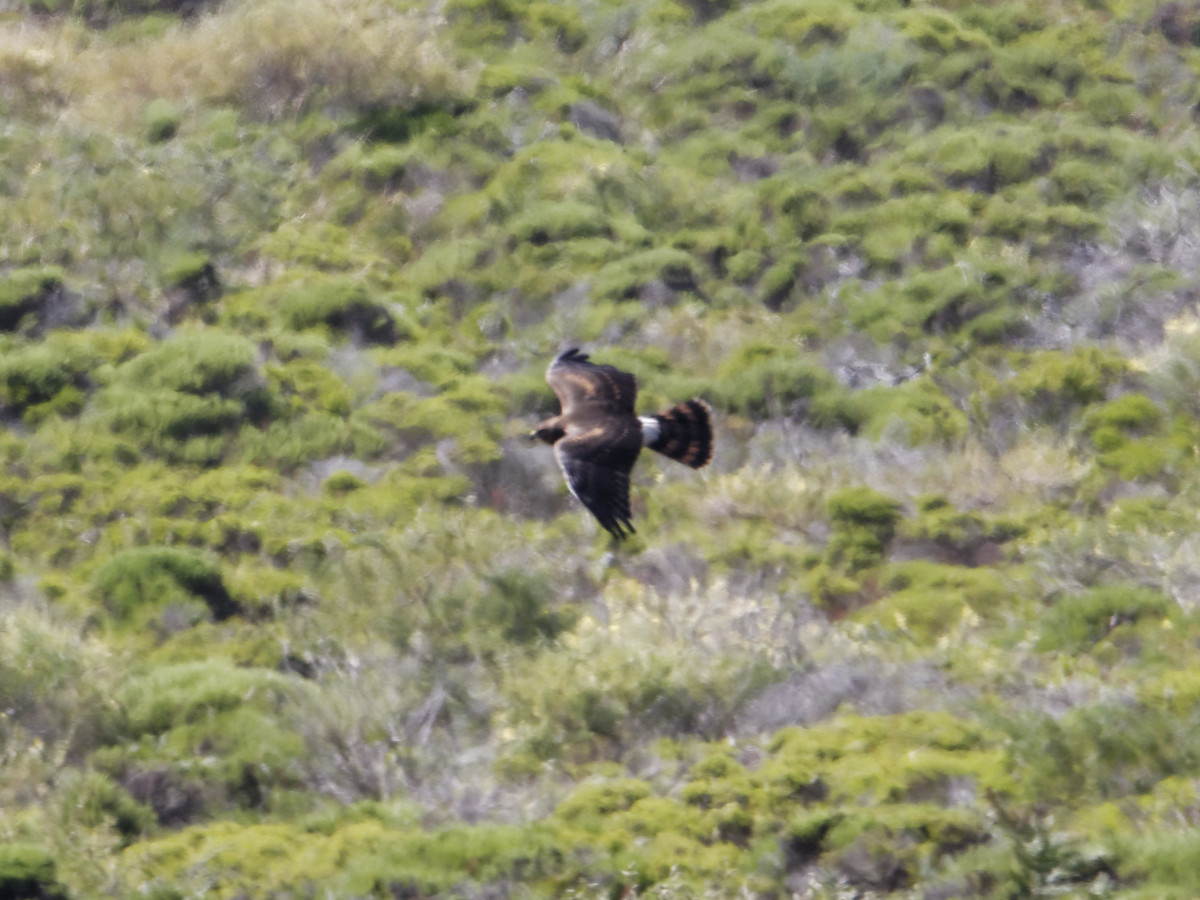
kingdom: Animalia
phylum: Chordata
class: Aves
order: Accipitriformes
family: Accipitridae
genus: Circus
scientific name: Circus cyaneus
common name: Hen harrier
